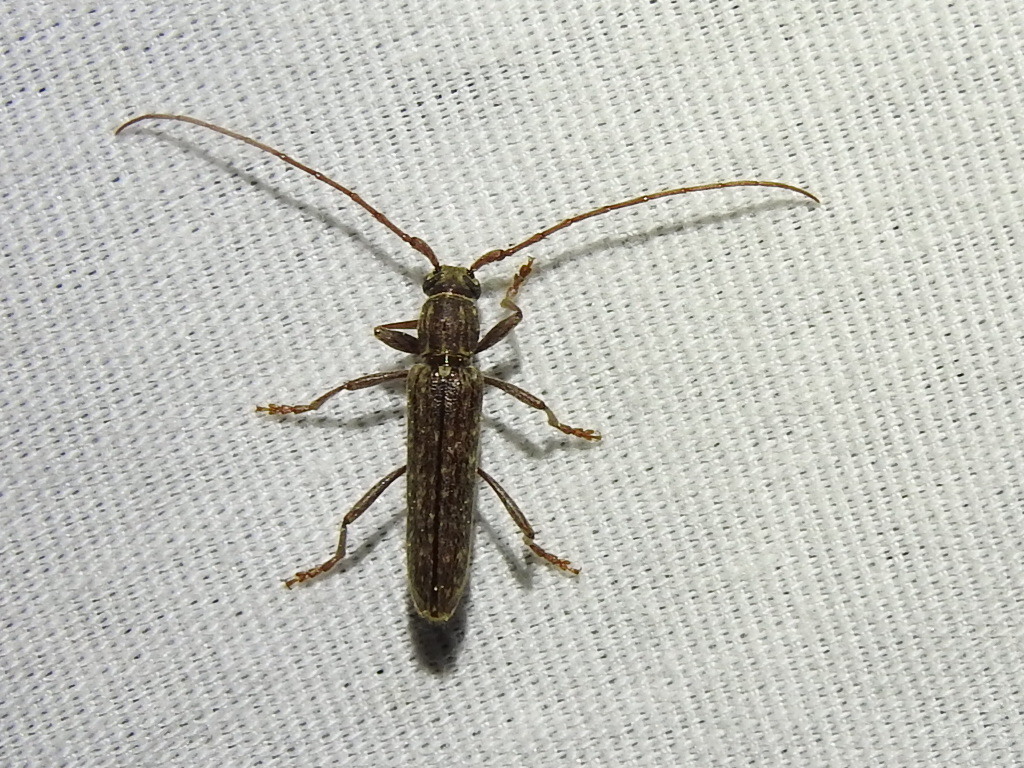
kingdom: Animalia
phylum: Arthropoda
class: Insecta
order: Coleoptera
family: Cerambycidae
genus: Anelaphus
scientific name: Anelaphus villosus
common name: Twig pruner
